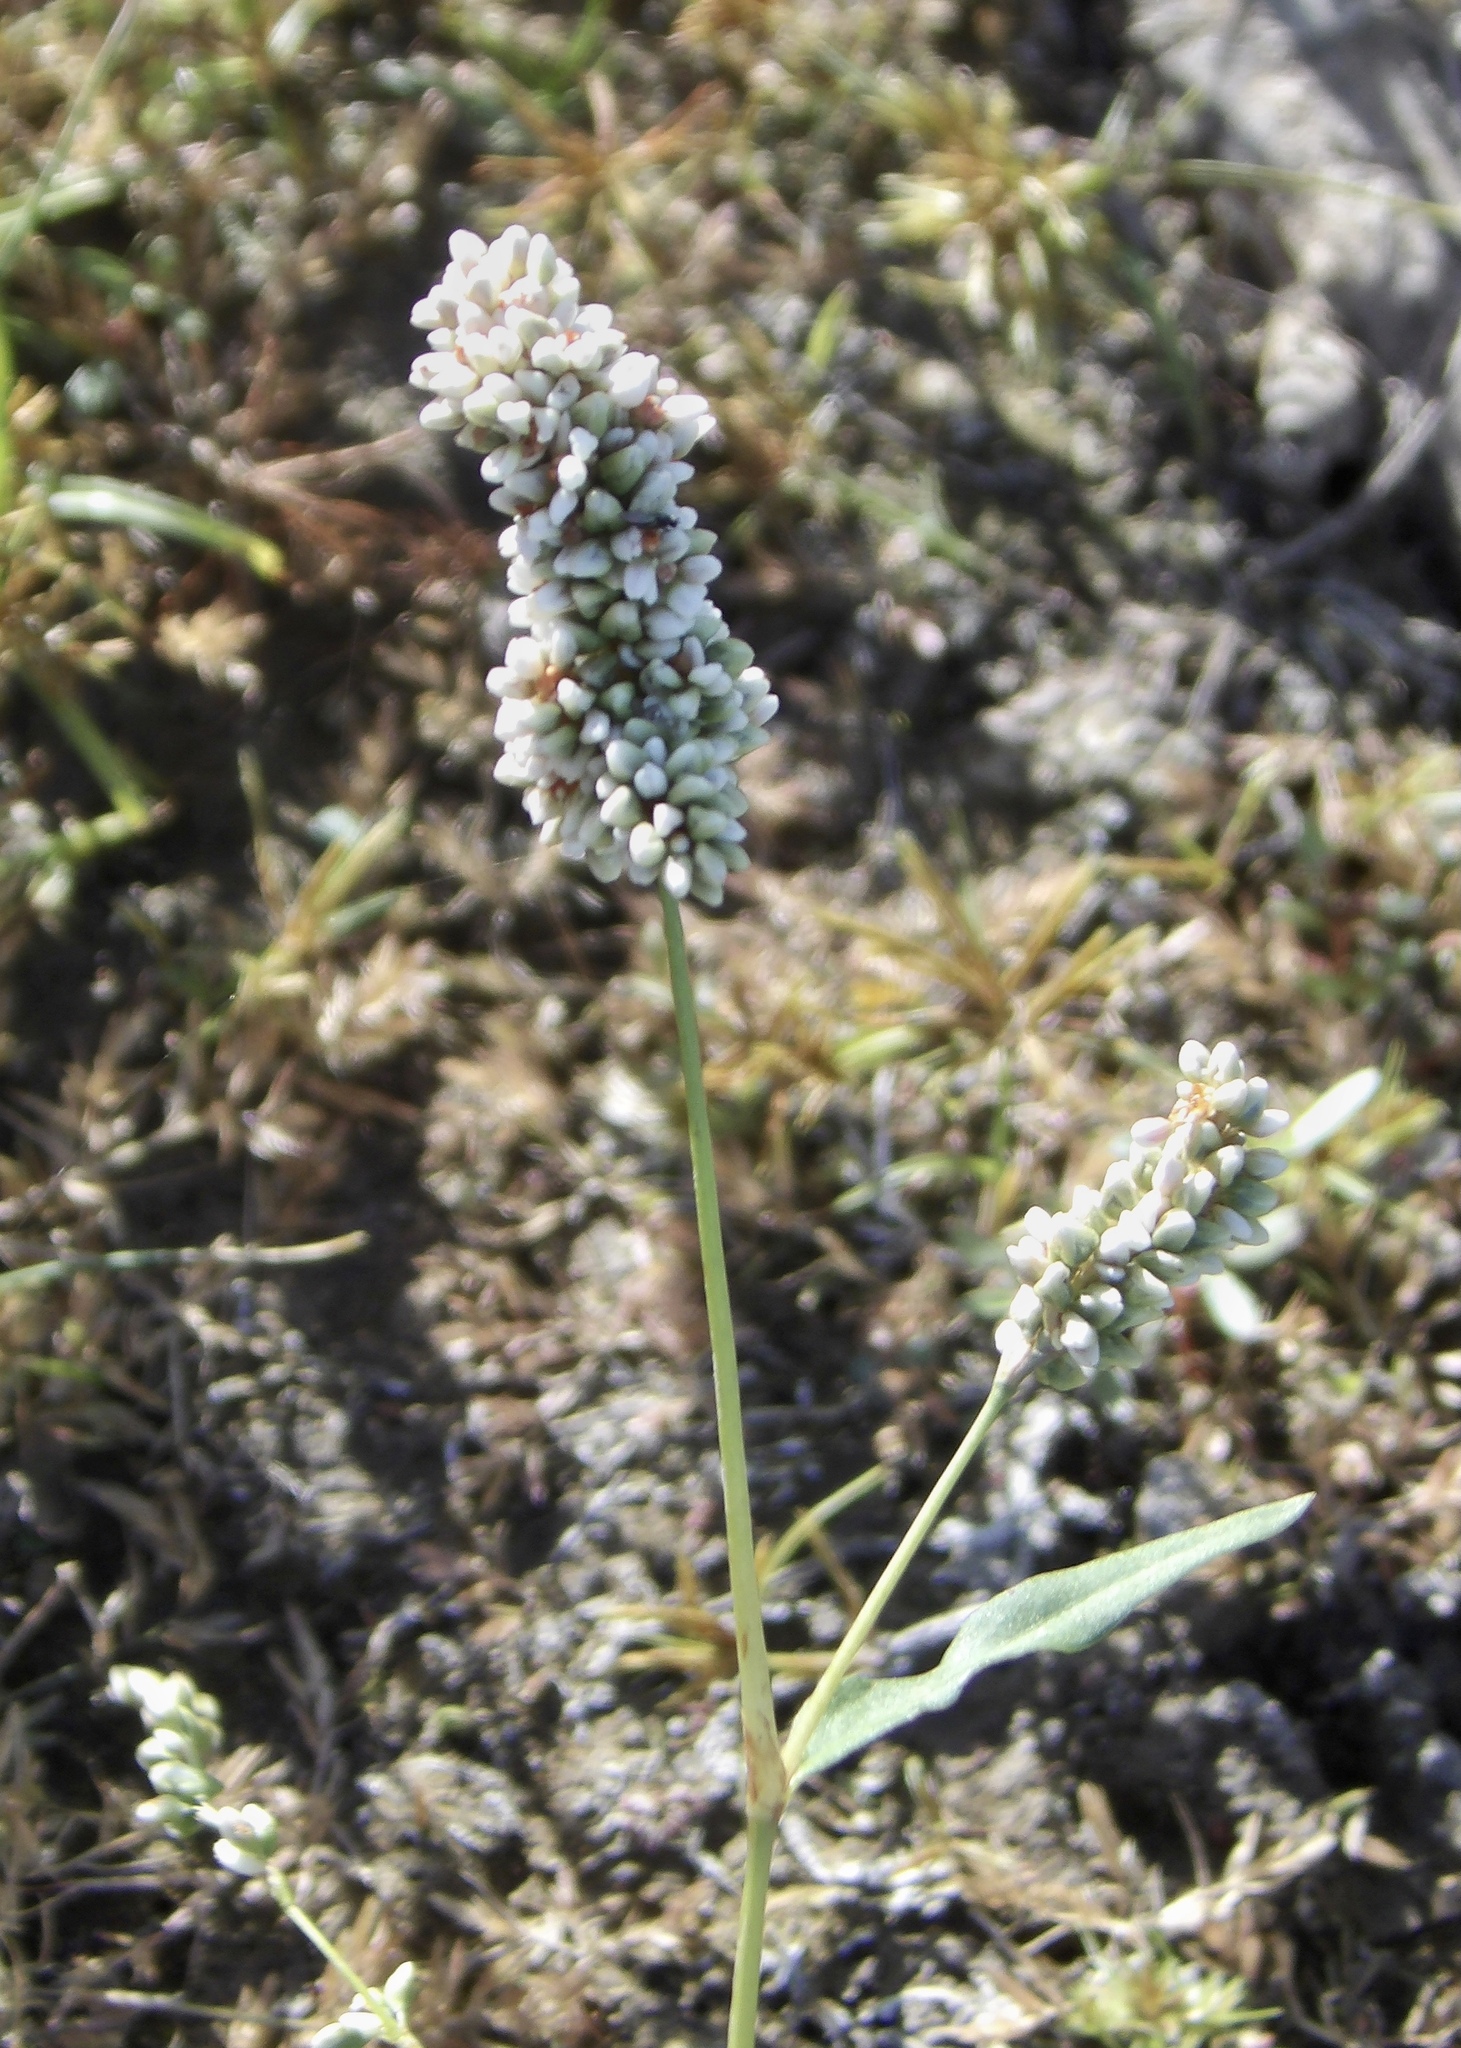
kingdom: Plantae
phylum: Tracheophyta
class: Magnoliopsida
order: Caryophyllales
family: Polygonaceae
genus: Persicaria
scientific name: Persicaria lapathifolia
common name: Curlytop knotweed
